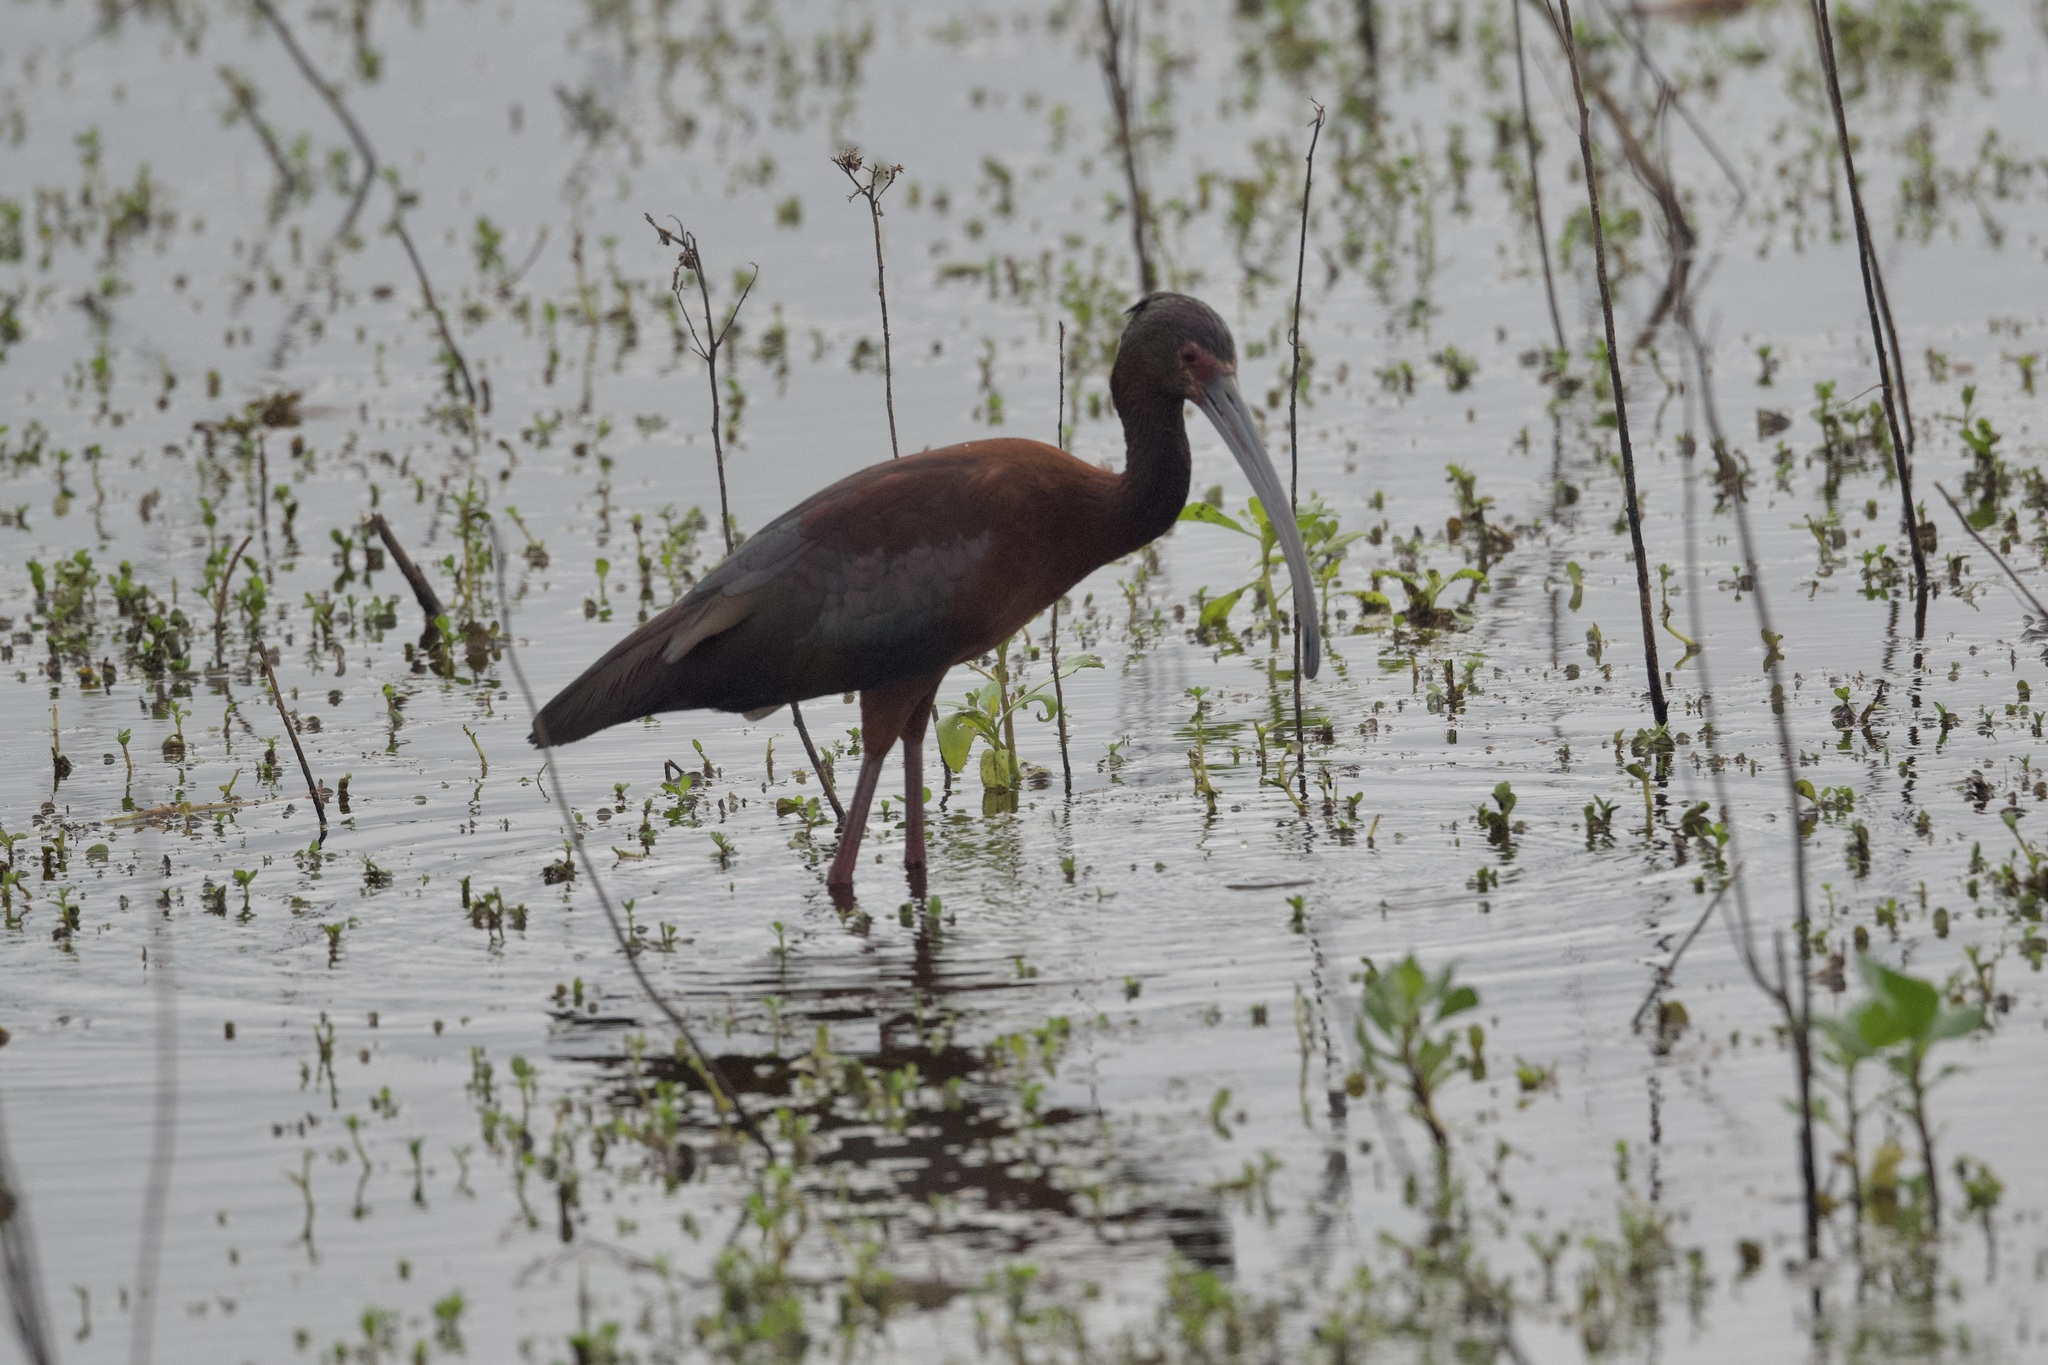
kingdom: Animalia
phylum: Chordata
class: Aves
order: Pelecaniformes
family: Threskiornithidae
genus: Plegadis
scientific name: Plegadis chihi
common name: White-faced ibis
